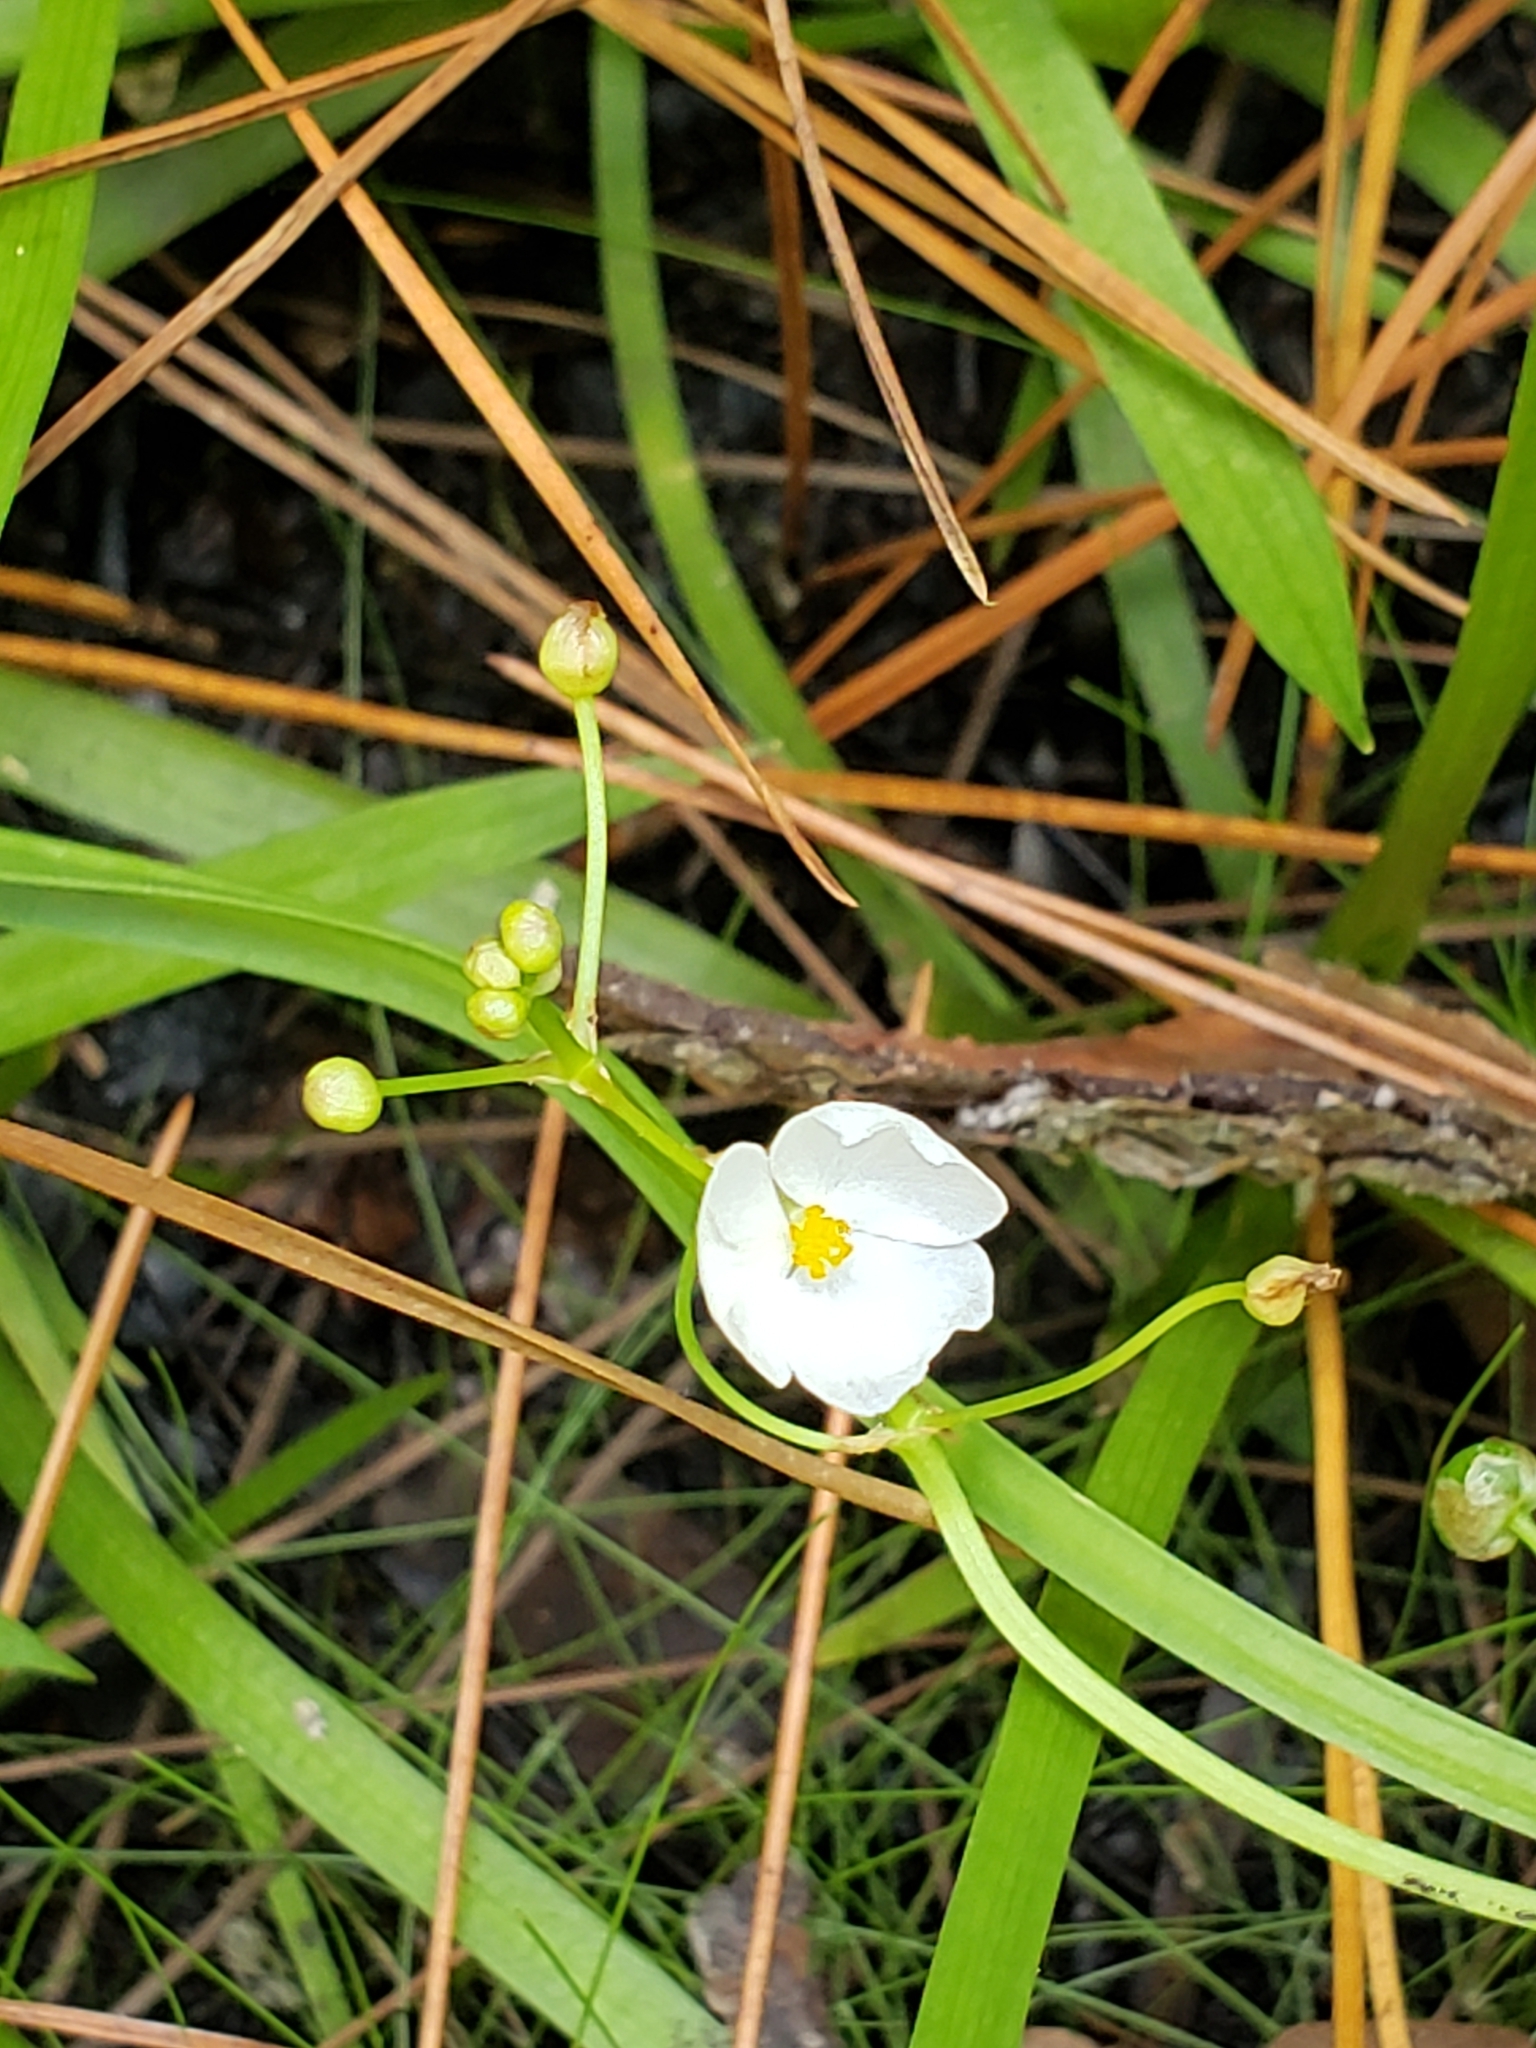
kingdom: Plantae
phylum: Tracheophyta
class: Liliopsida
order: Alismatales
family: Alismataceae
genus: Sagittaria
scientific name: Sagittaria graminea
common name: Grass-leaved arrowhead
